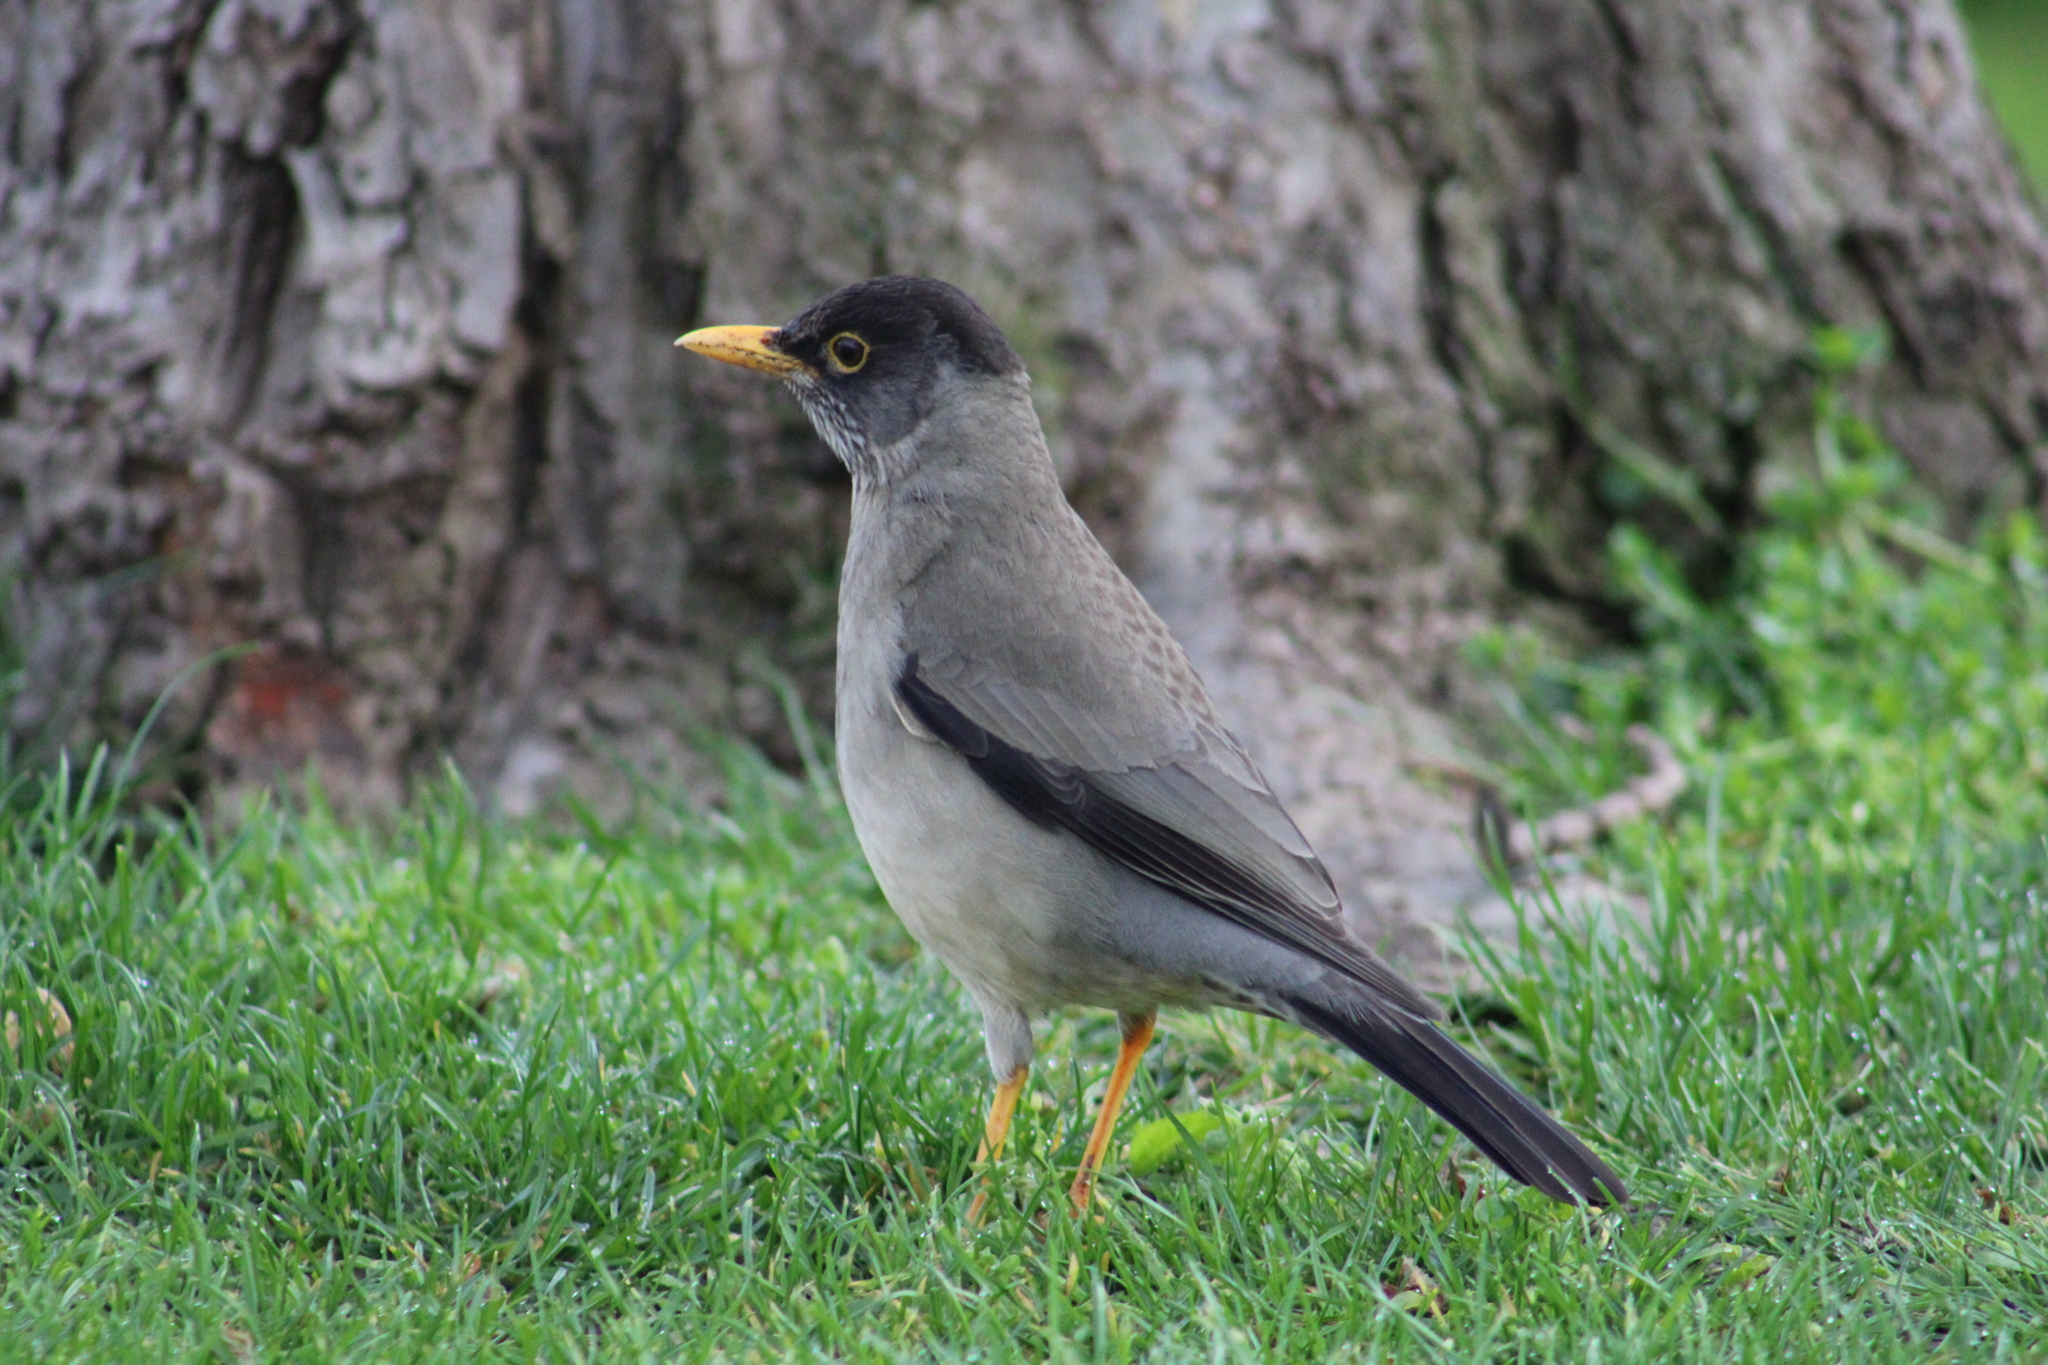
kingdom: Animalia
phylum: Chordata
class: Aves
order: Passeriformes
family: Turdidae
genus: Turdus
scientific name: Turdus falcklandii
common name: Austral thrush
